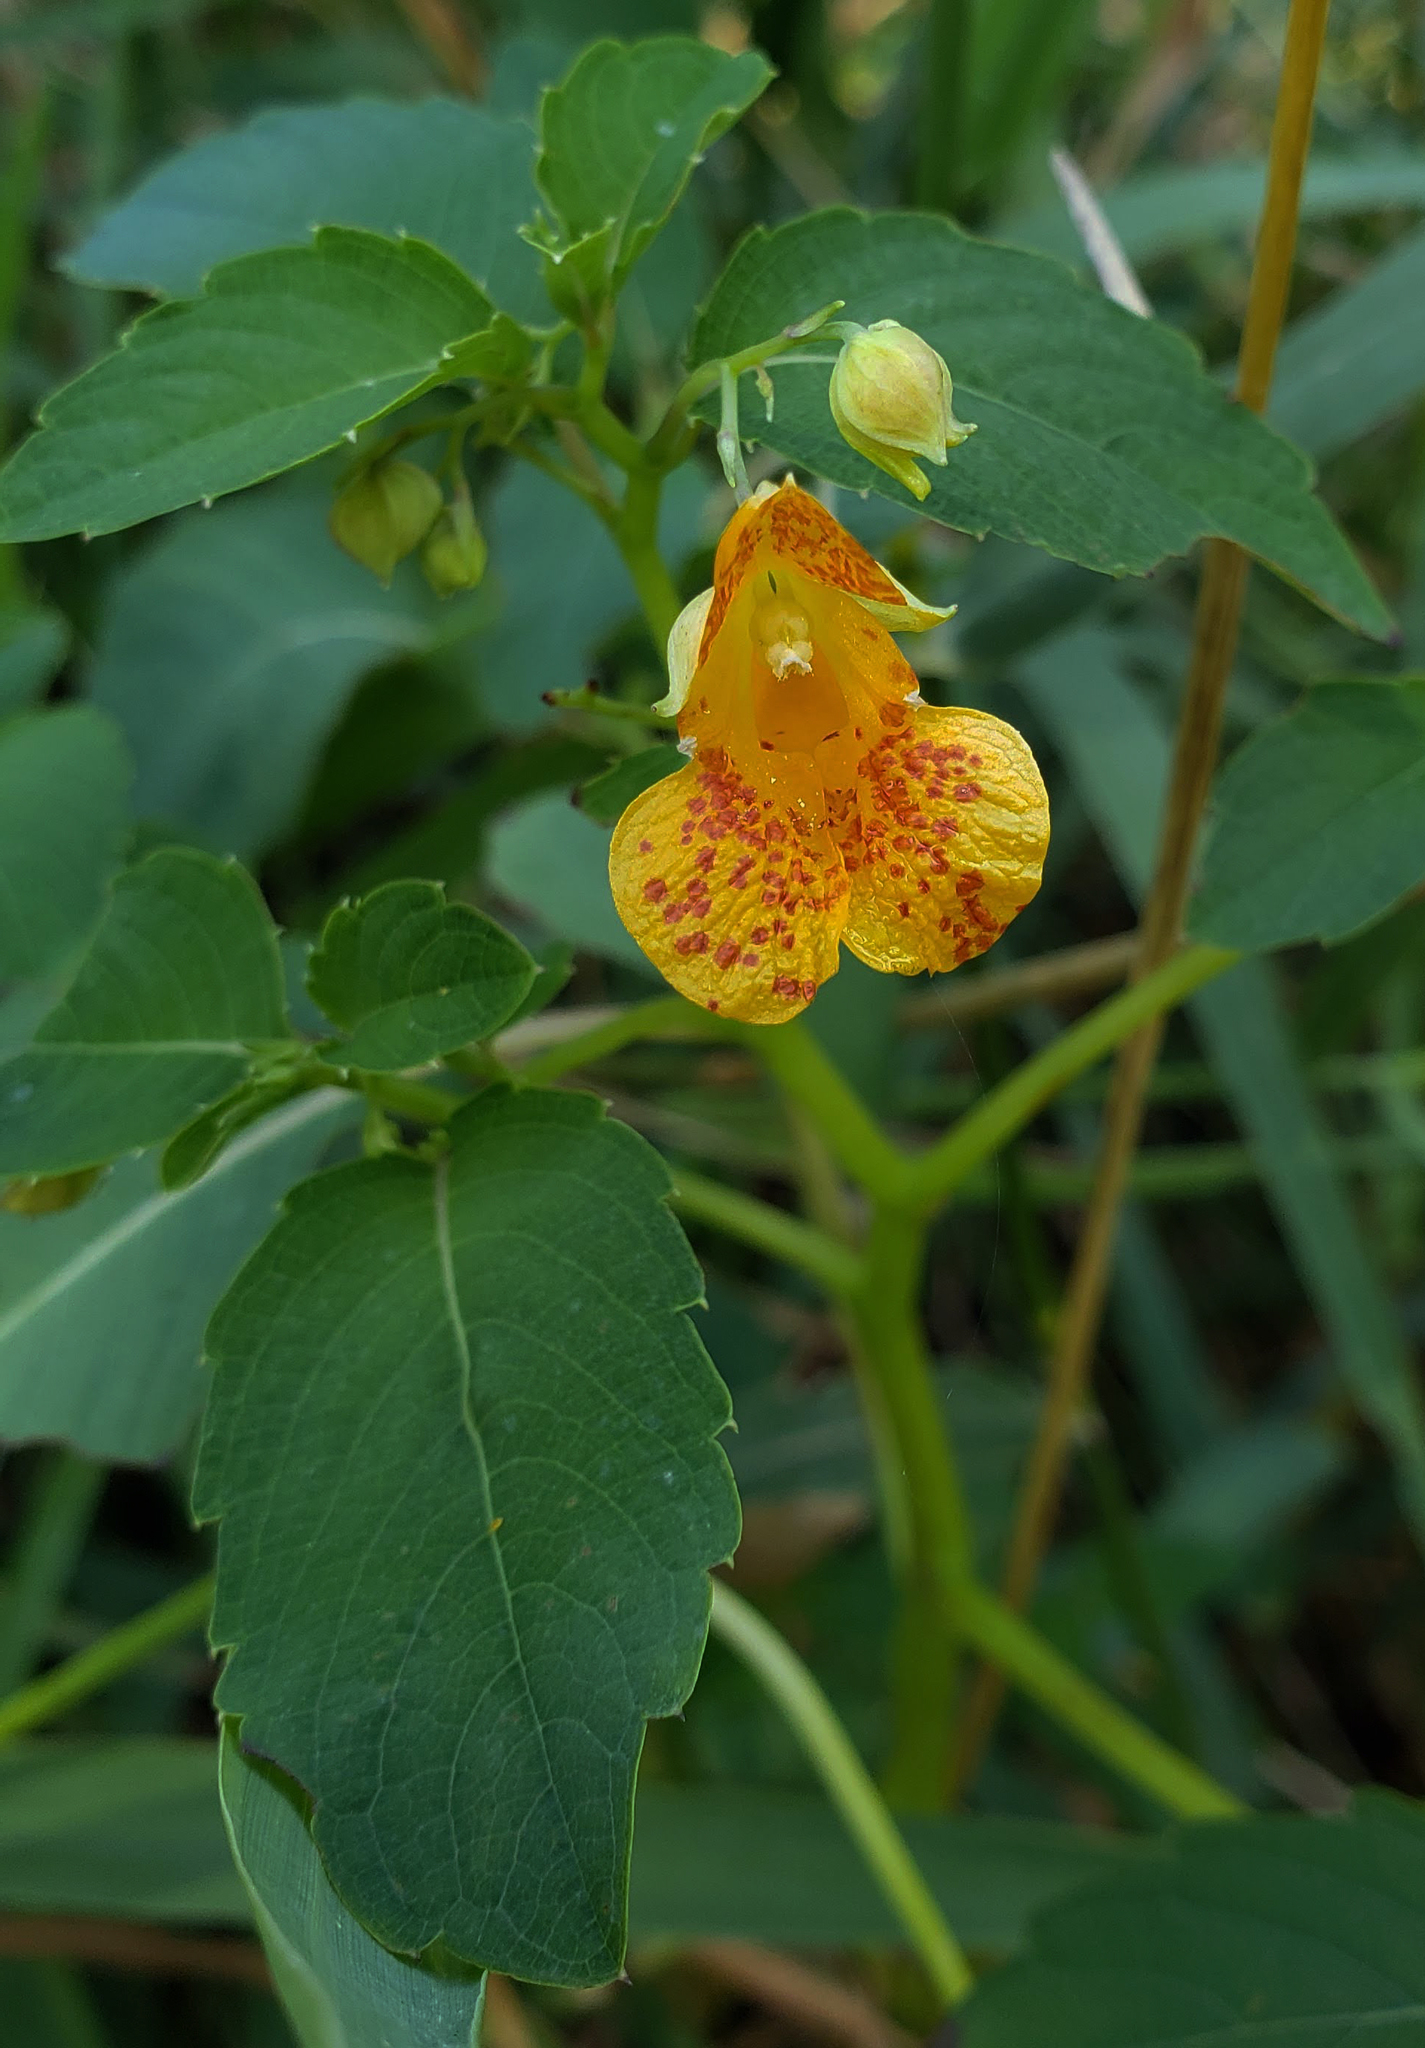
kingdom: Plantae
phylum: Tracheophyta
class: Magnoliopsida
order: Ericales
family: Balsaminaceae
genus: Impatiens
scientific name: Impatiens capensis
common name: Orange balsam
